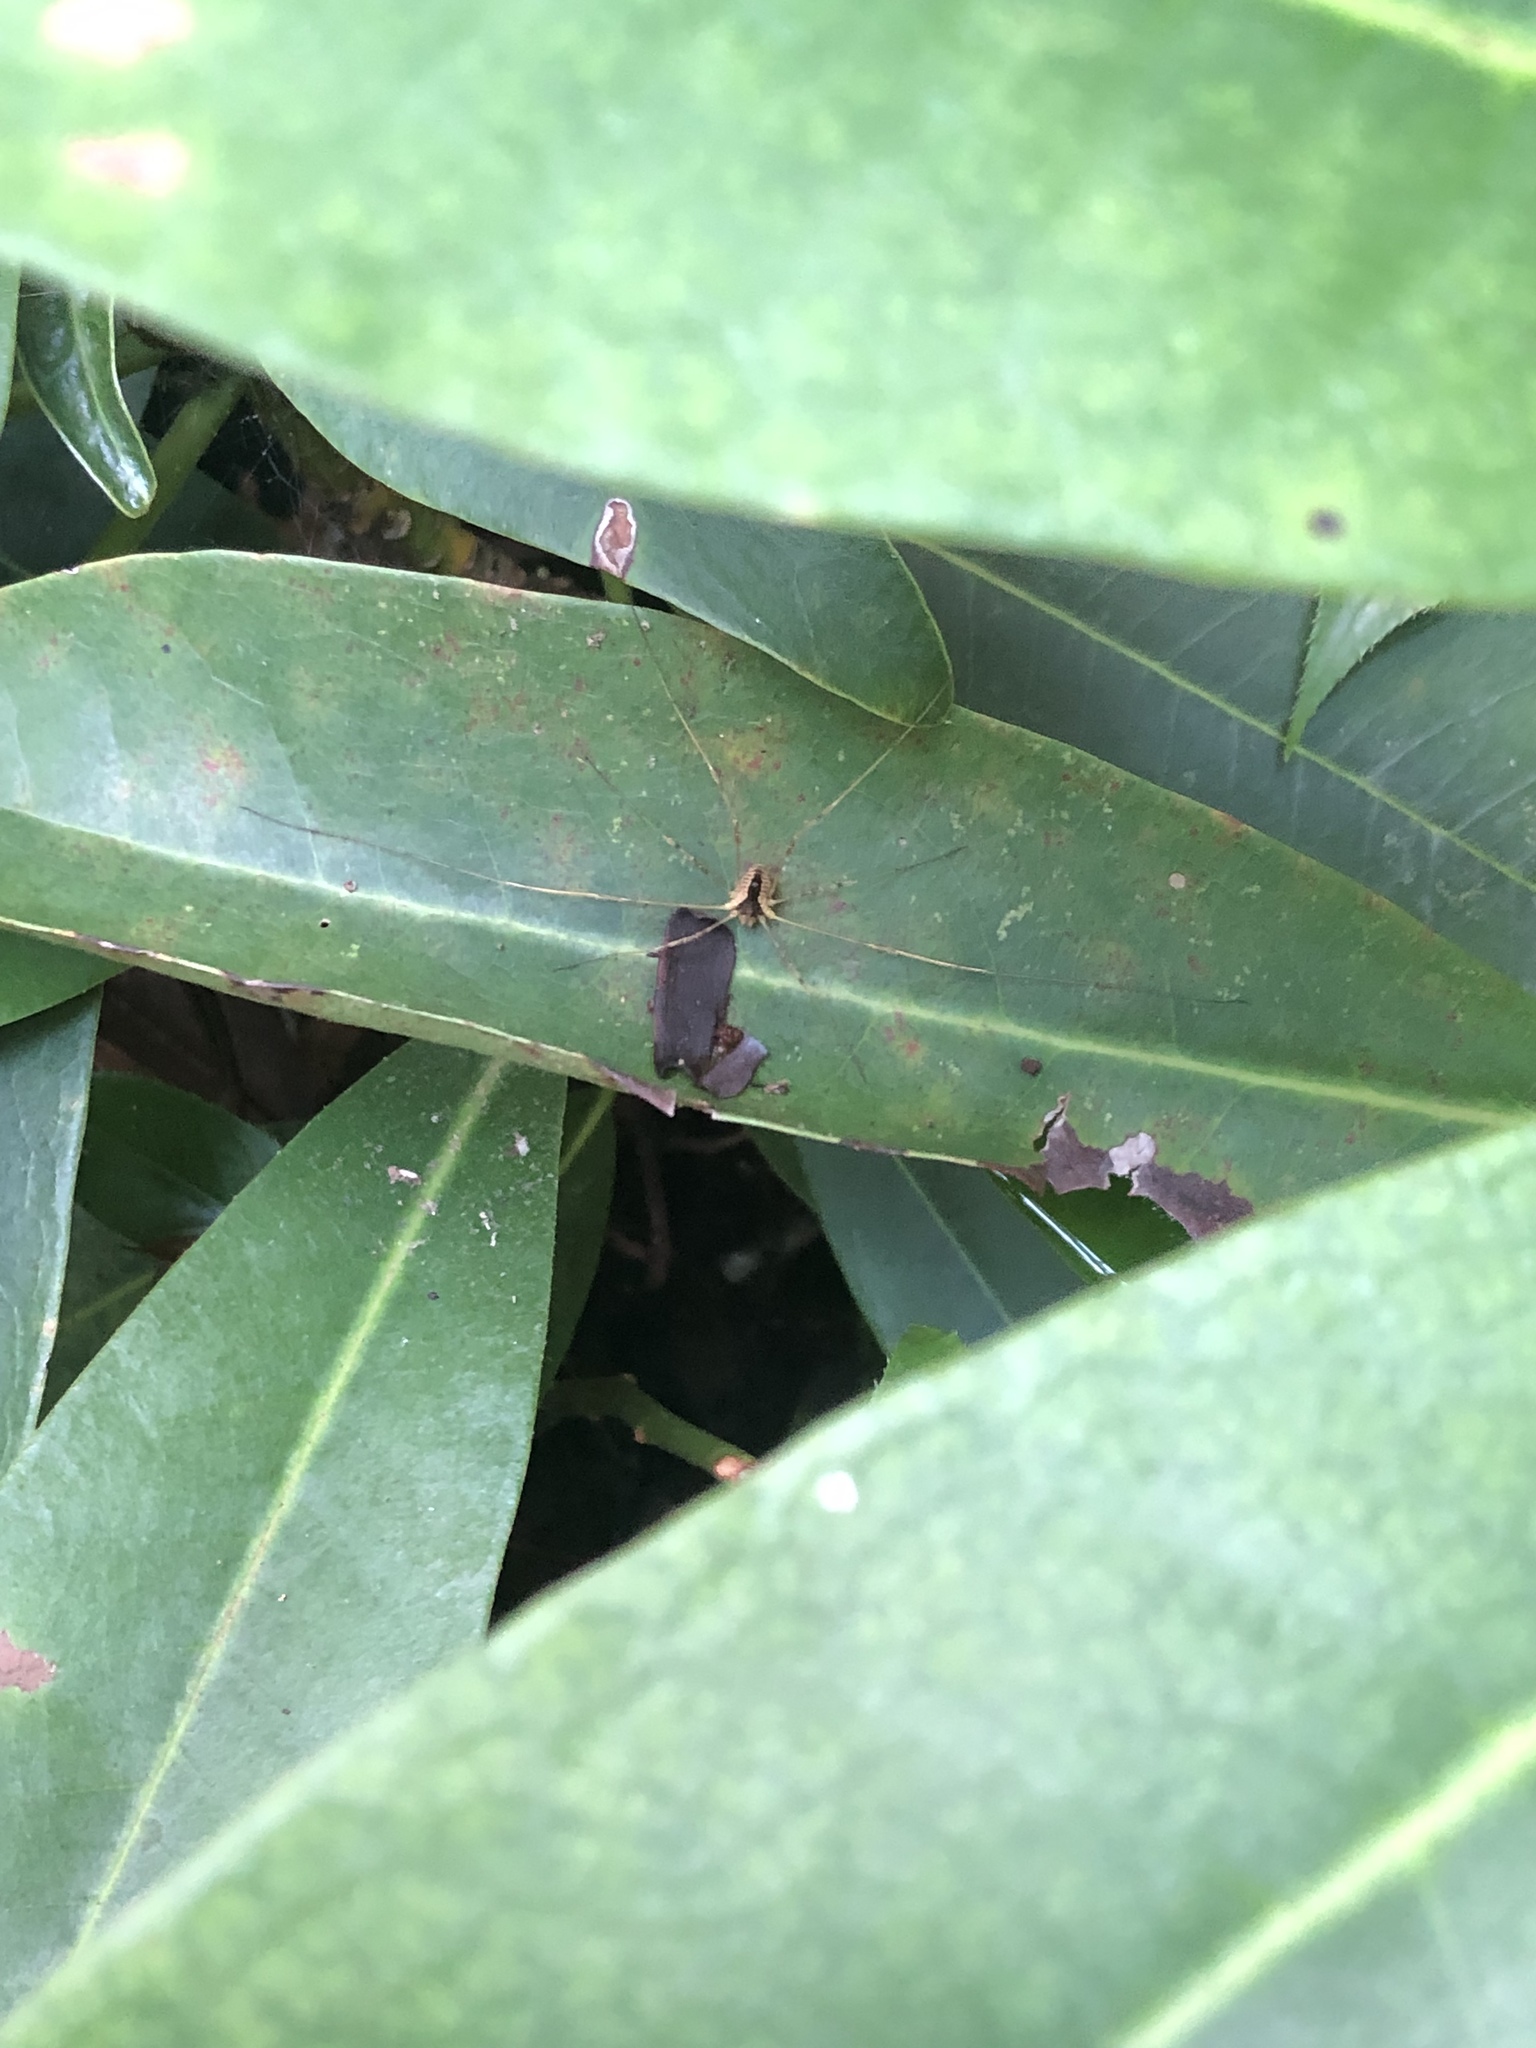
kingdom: Animalia
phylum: Arthropoda
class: Arachnida
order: Opiliones
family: Phalangiidae
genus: Odiellus
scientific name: Odiellus nubivagus
